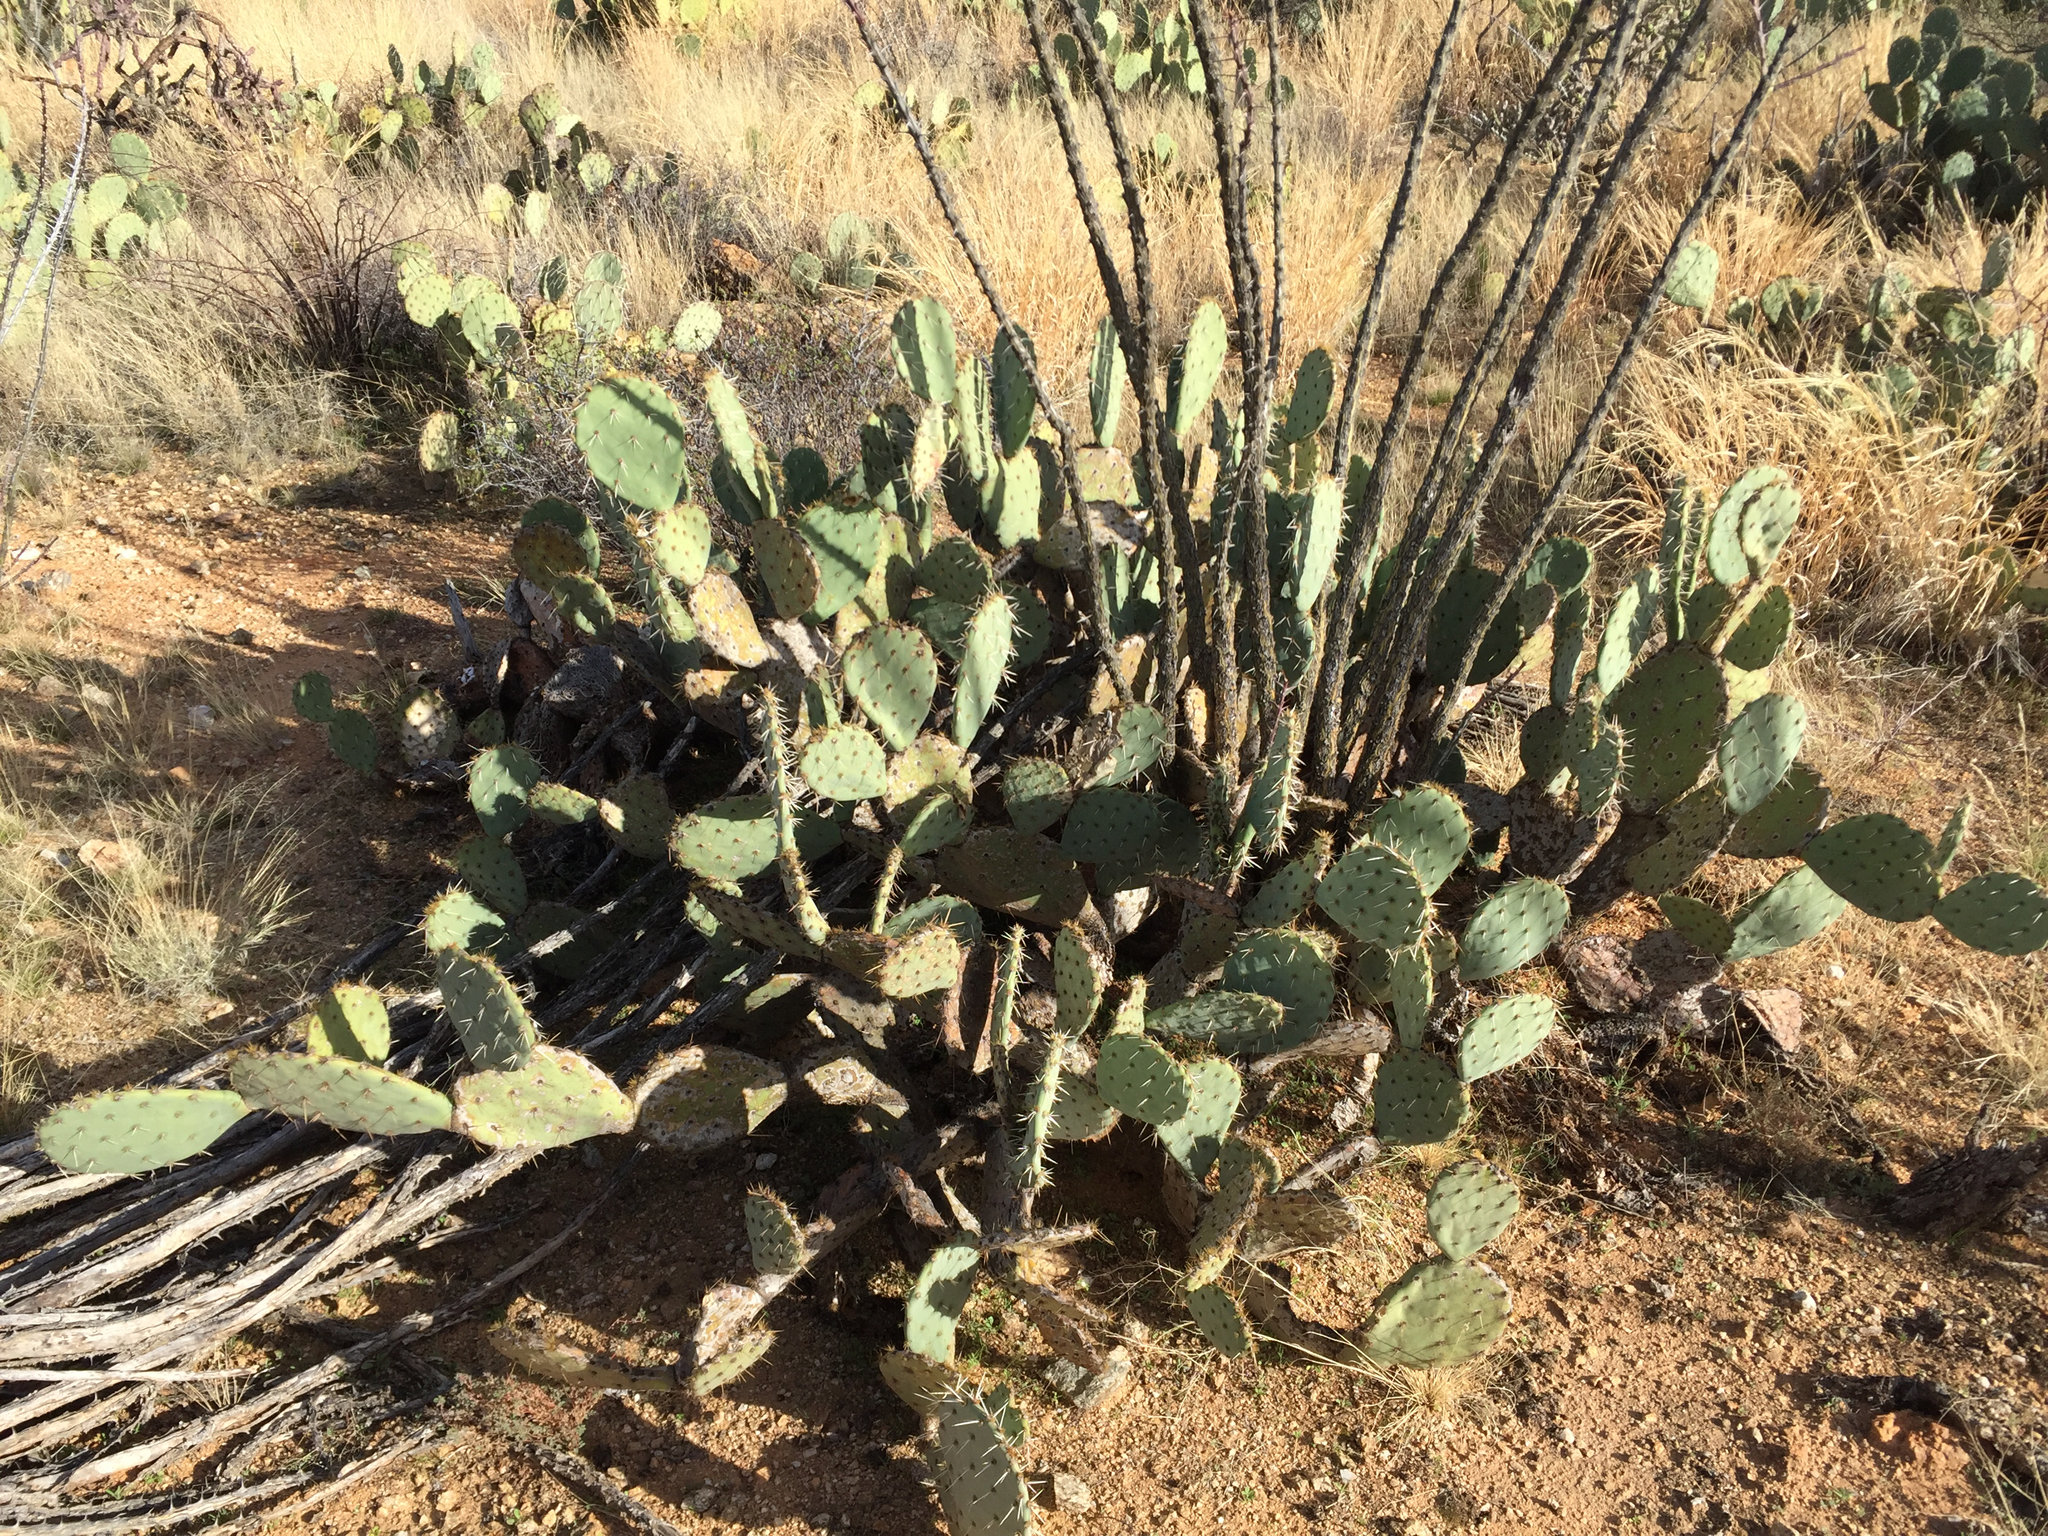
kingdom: Plantae
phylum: Tracheophyta
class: Magnoliopsida
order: Caryophyllales
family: Cactaceae
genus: Opuntia
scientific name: Opuntia engelmannii
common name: Cactus-apple
